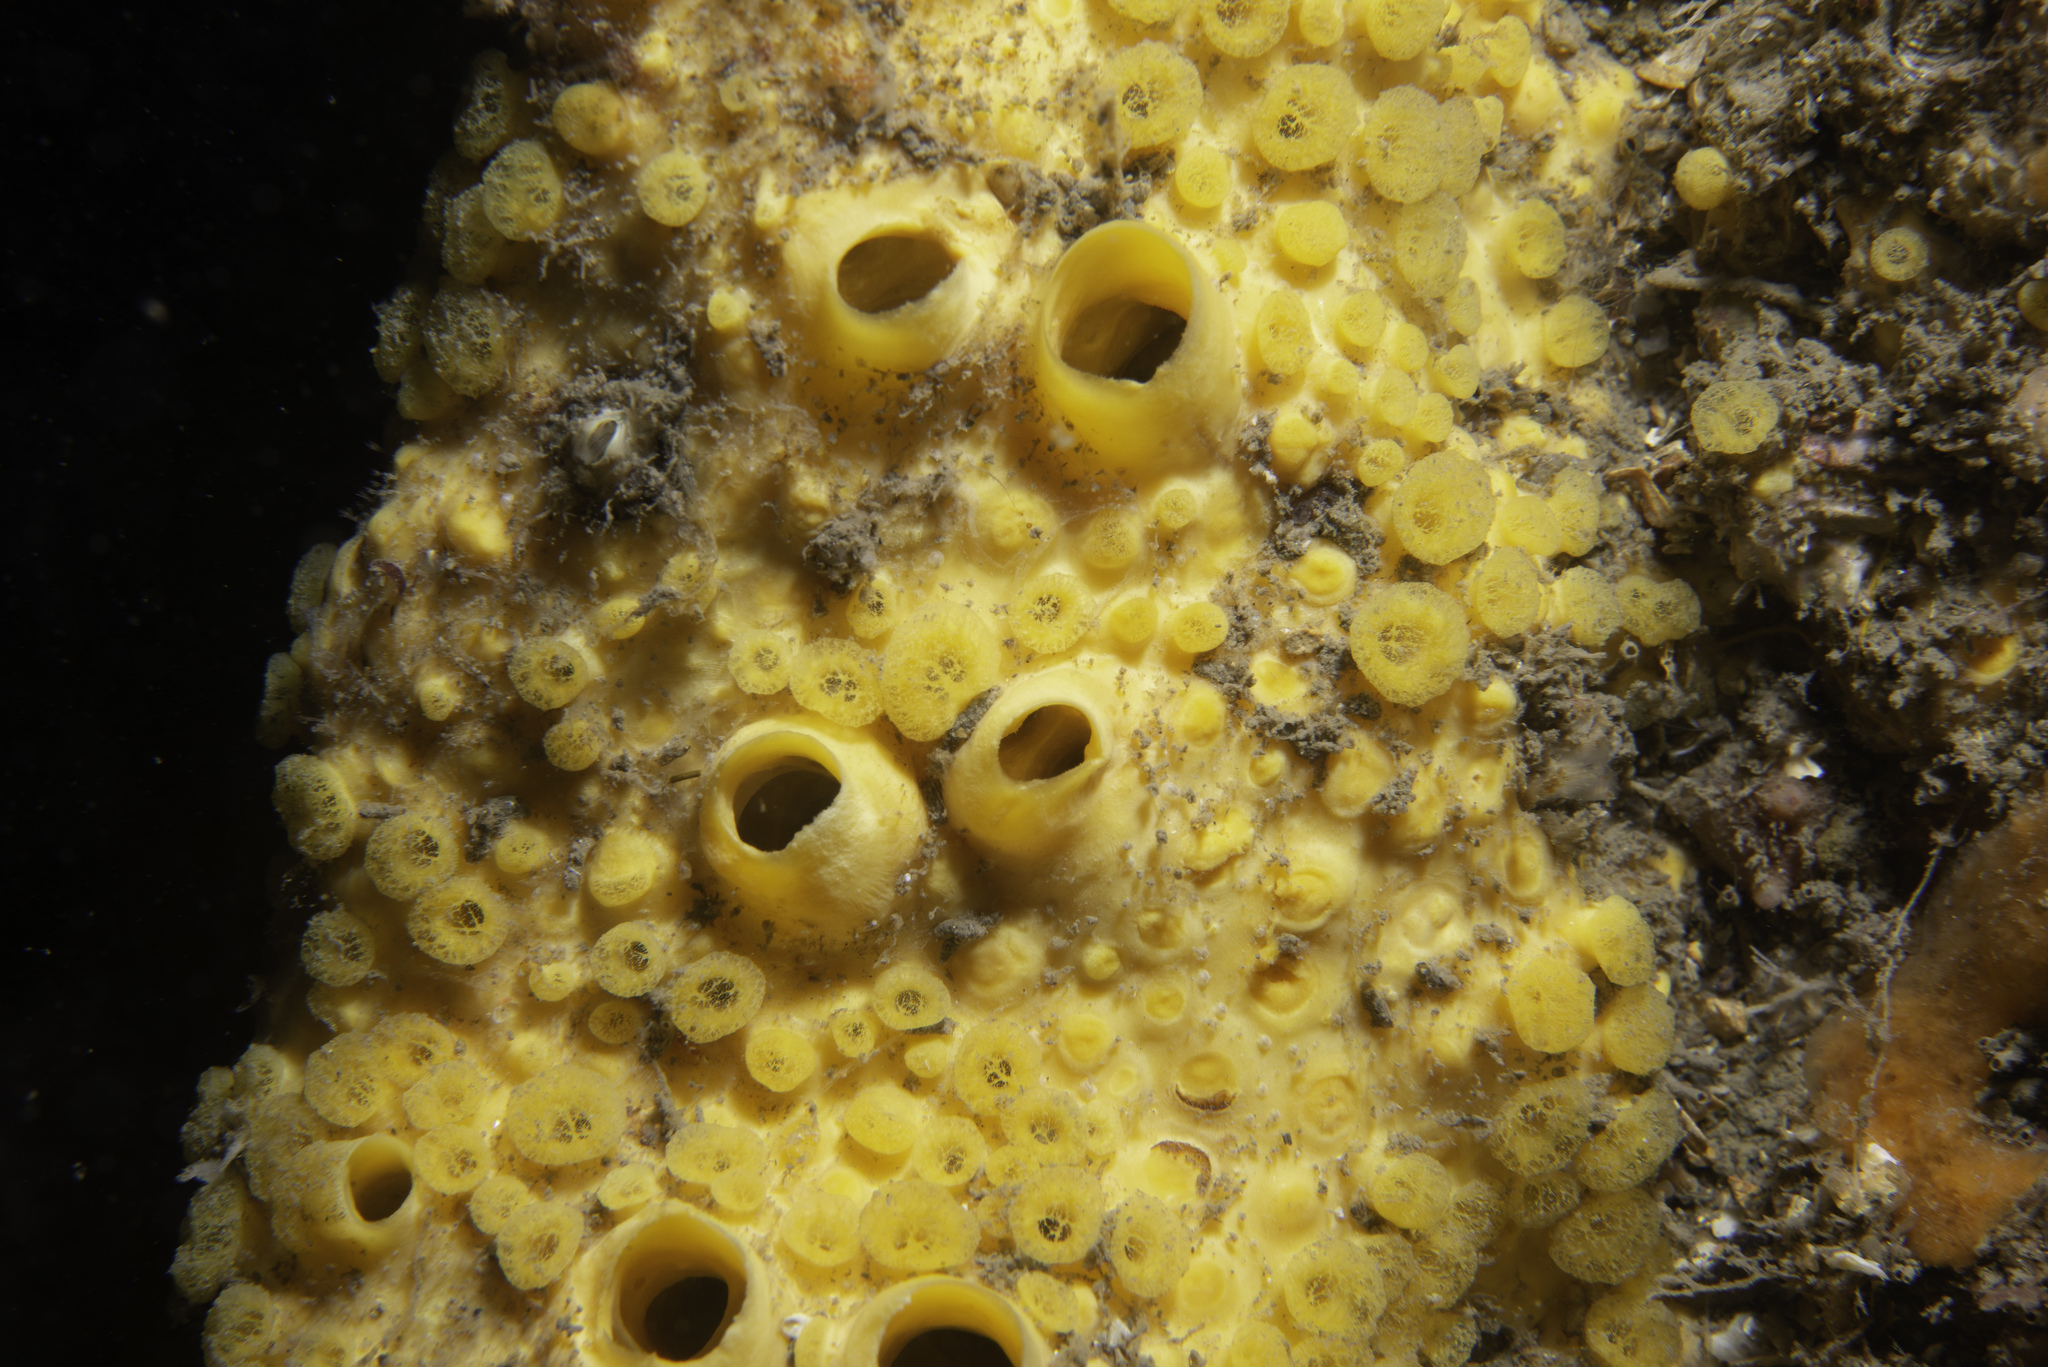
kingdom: Animalia
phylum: Porifera
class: Demospongiae
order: Clionaida
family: Clionaidae
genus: Cliona
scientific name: Cliona celata
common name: Boring sponge
